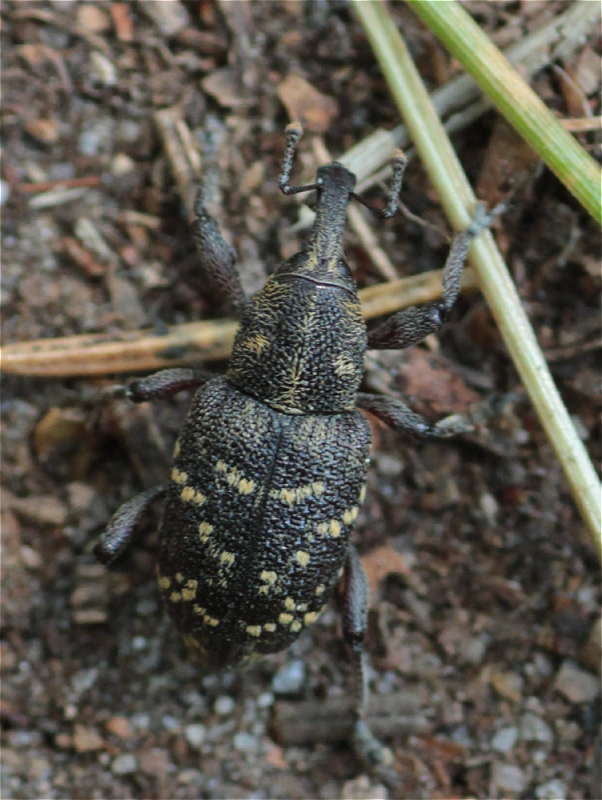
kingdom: Animalia
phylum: Arthropoda
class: Insecta
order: Coleoptera
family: Curculionidae
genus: Hylobius
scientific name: Hylobius abietis
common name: Large pine weevil
